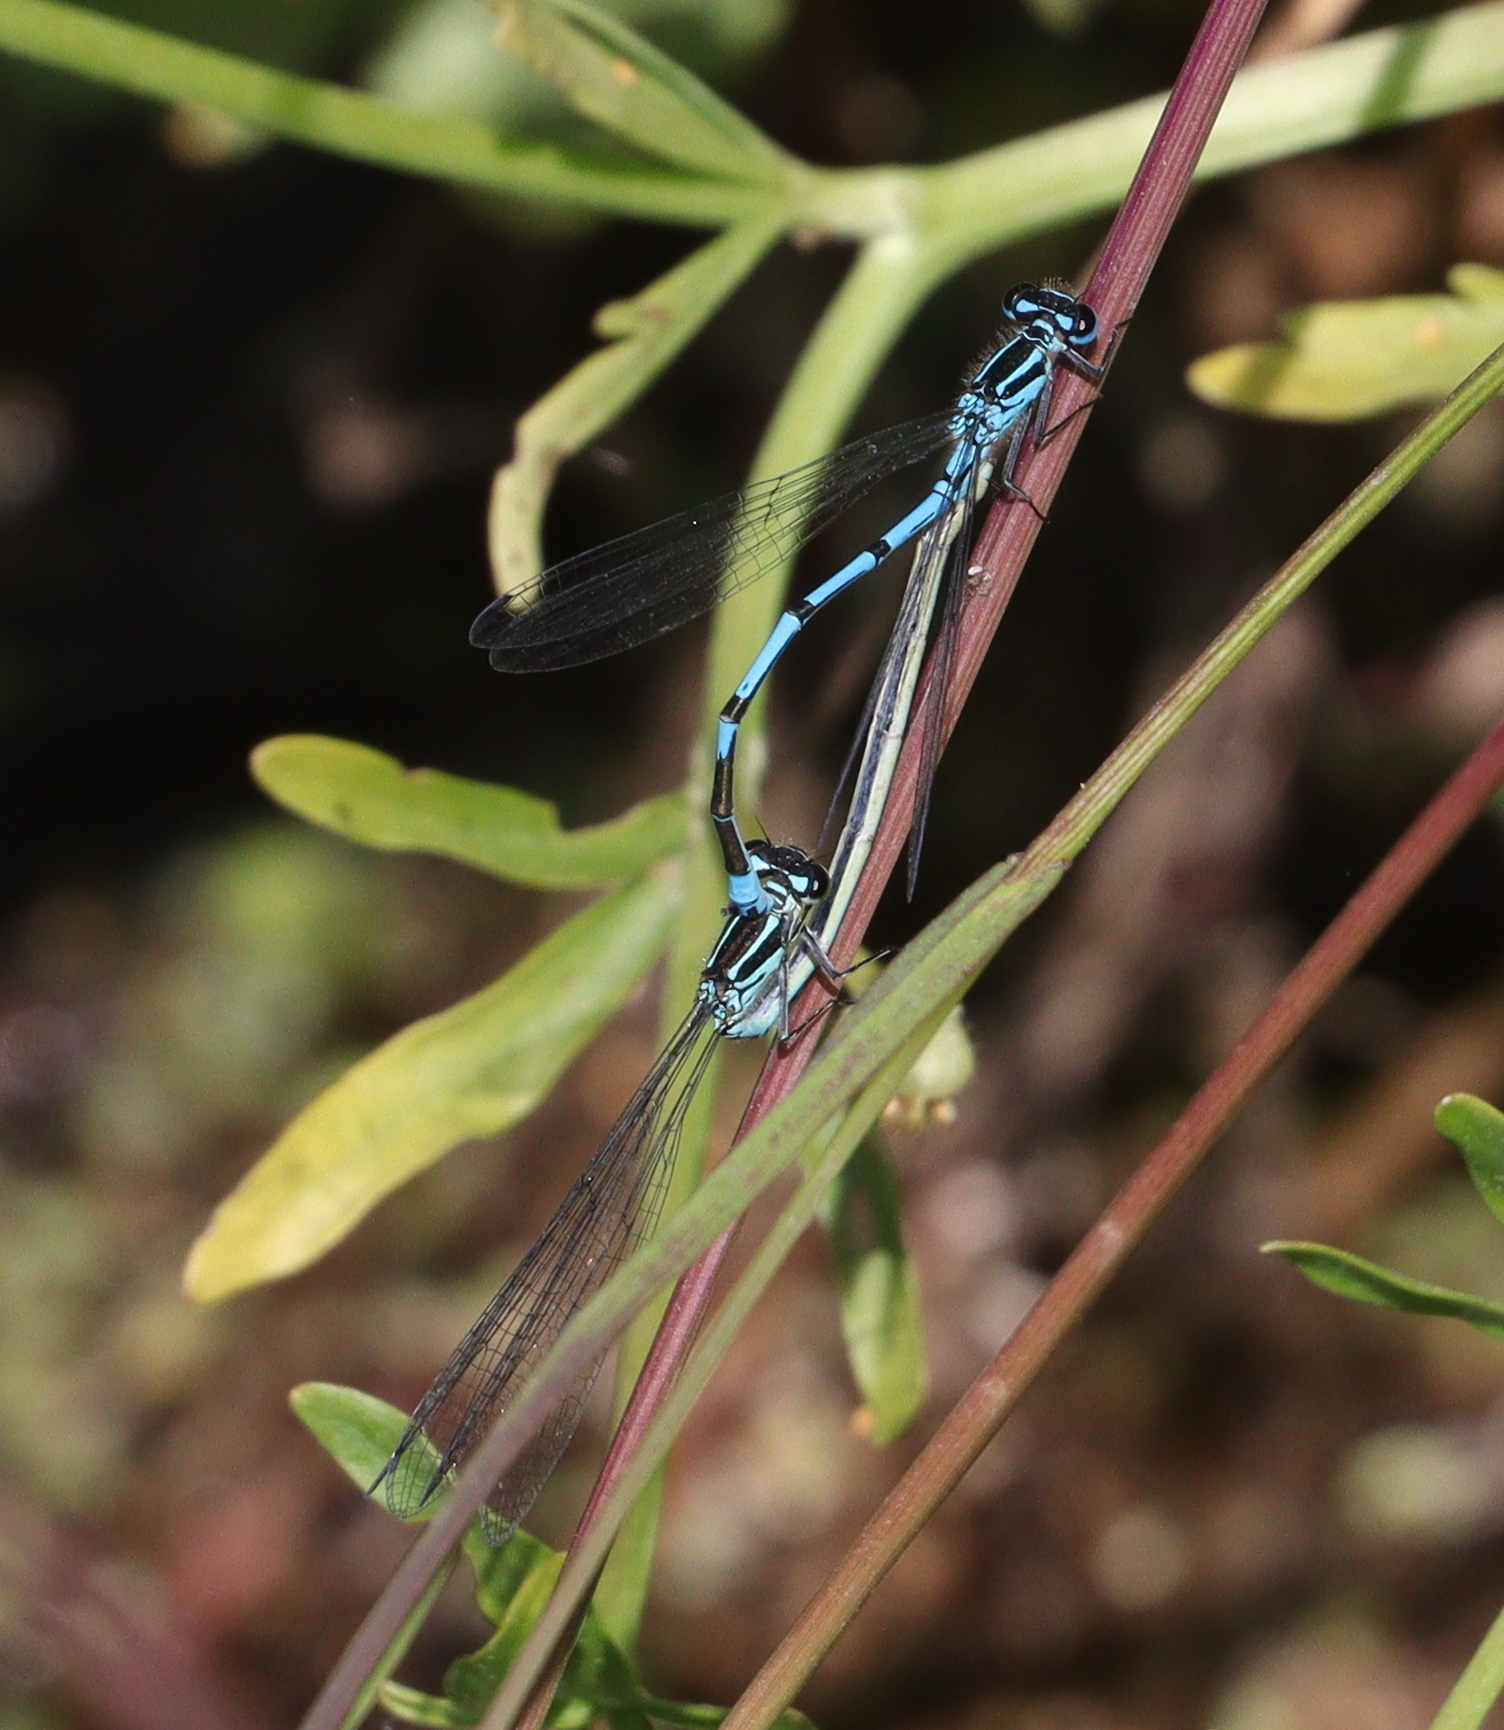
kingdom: Animalia
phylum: Arthropoda
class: Insecta
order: Odonata
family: Coenagrionidae
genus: Coenagrion
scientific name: Coenagrion puella
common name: Azure damselfly
